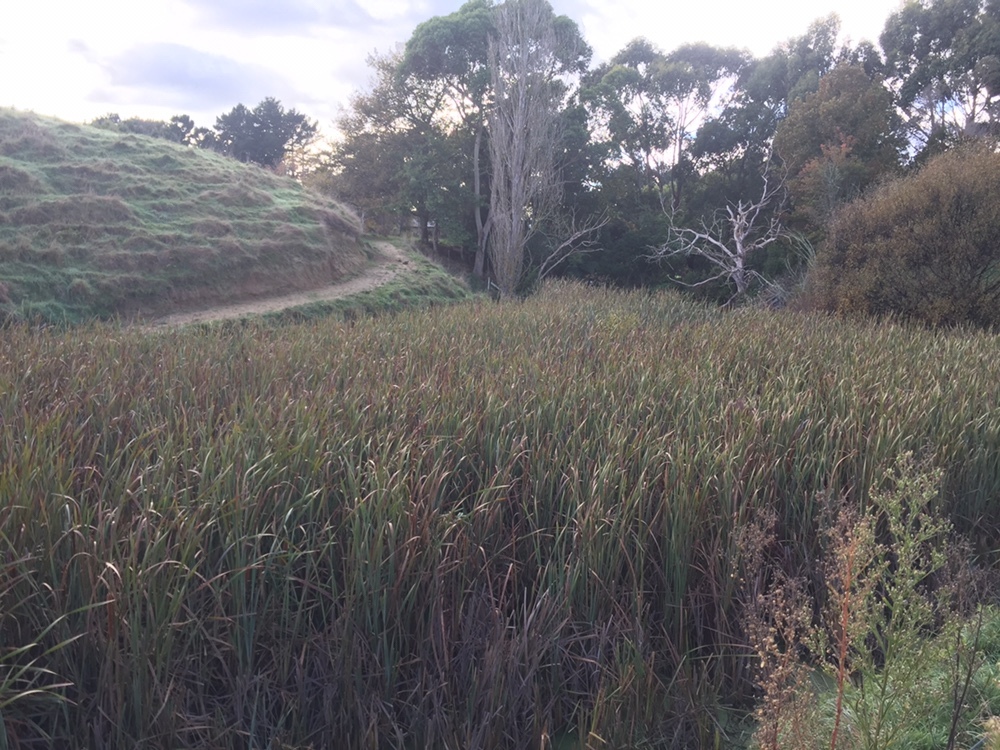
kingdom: Plantae
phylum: Tracheophyta
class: Liliopsida
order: Poales
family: Typhaceae
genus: Typha
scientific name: Typha orientalis
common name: Bullrush
